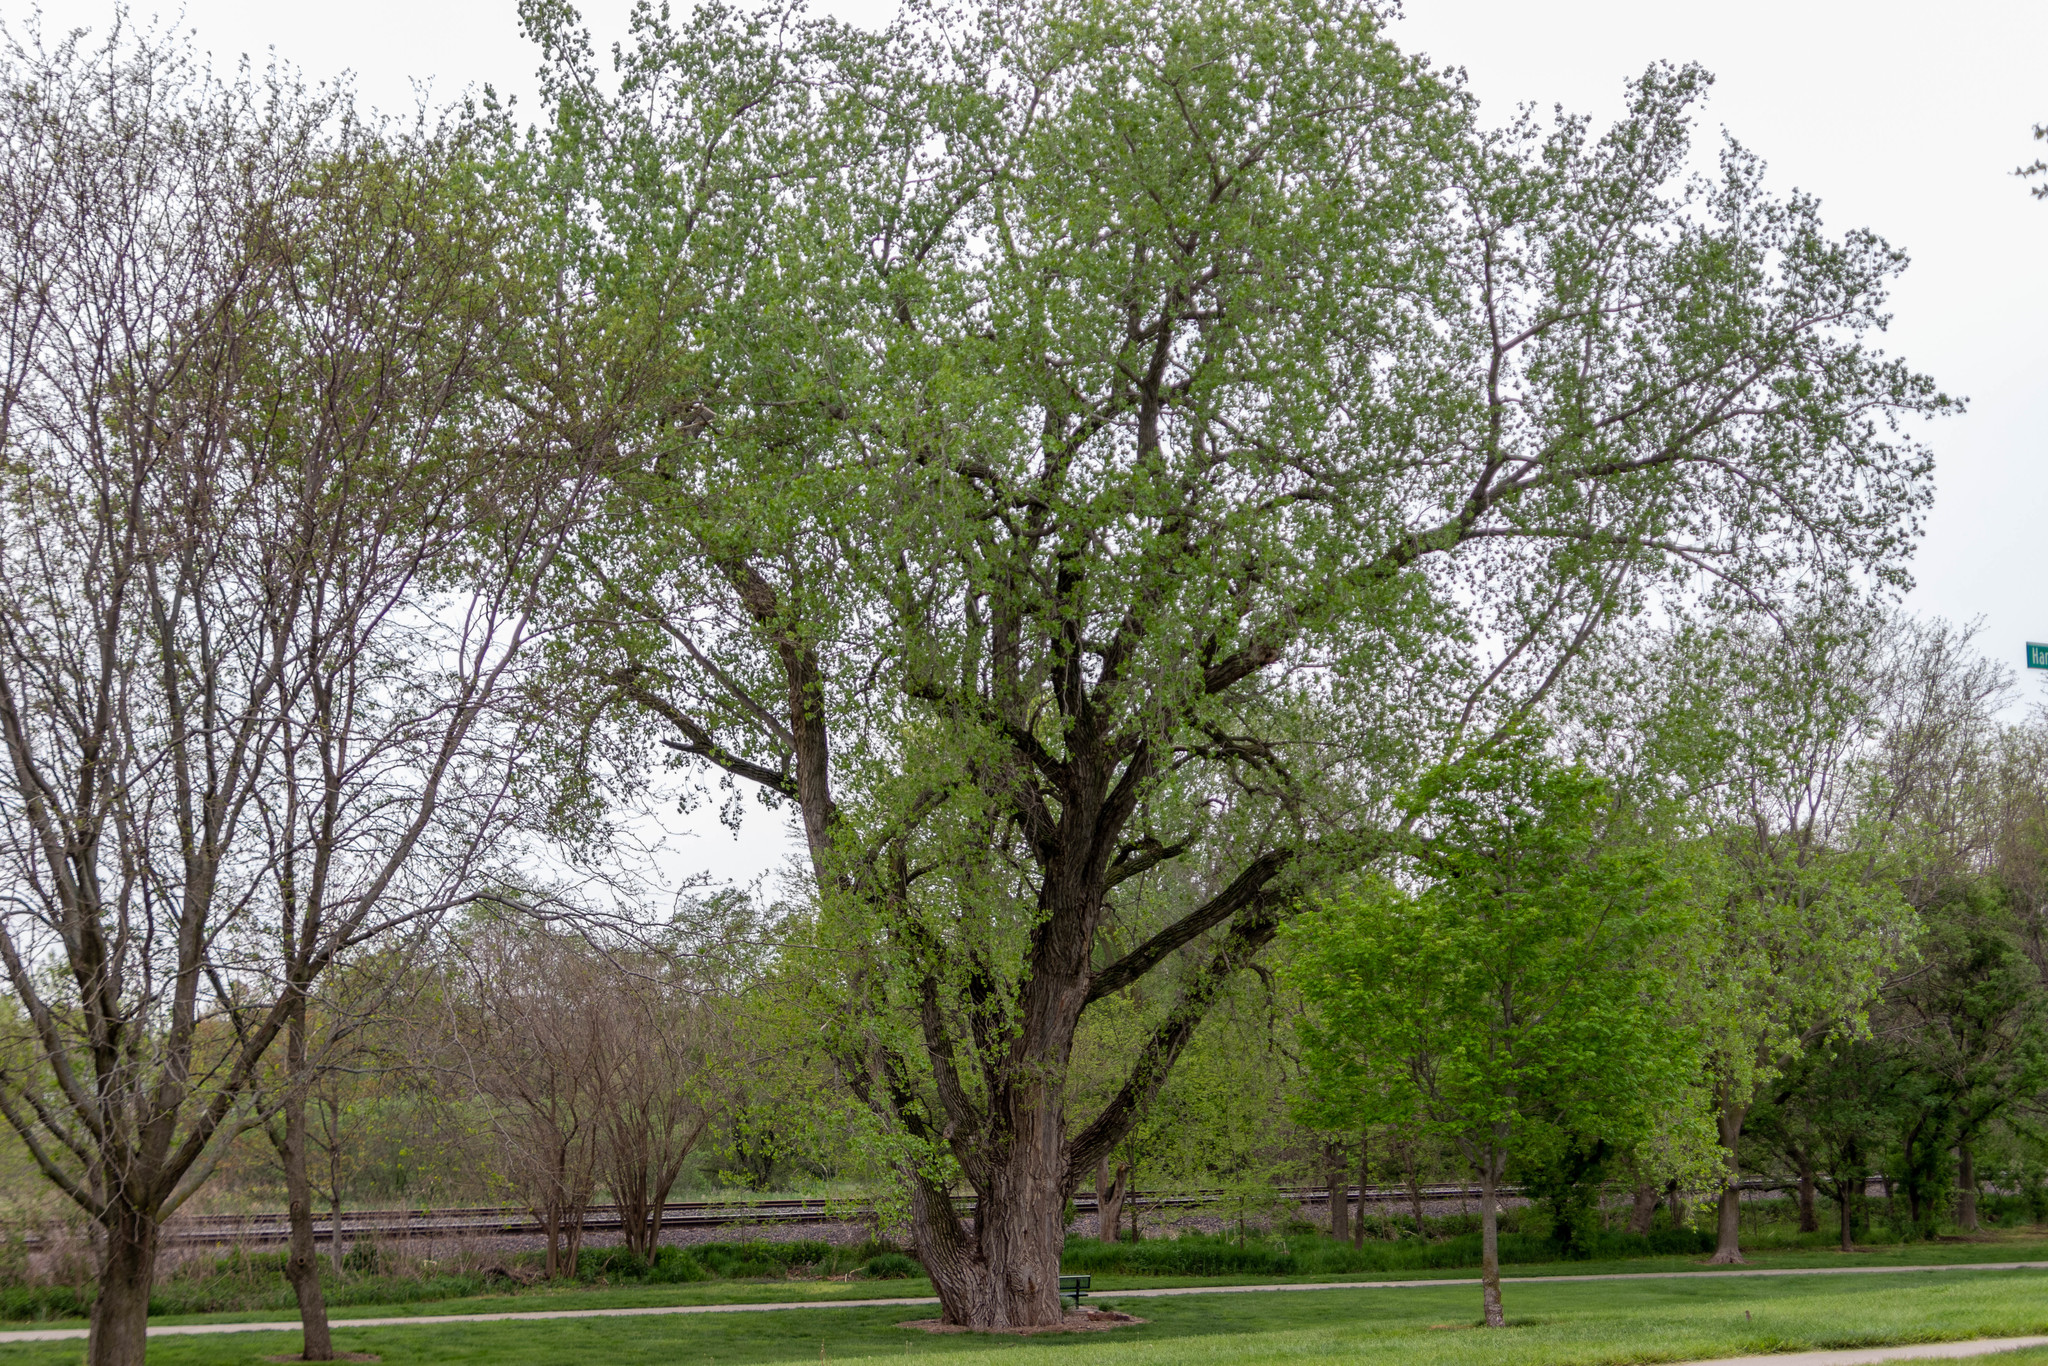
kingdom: Plantae
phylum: Tracheophyta
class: Magnoliopsida
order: Malpighiales
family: Salicaceae
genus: Populus
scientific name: Populus deltoides
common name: Eastern cottonwood
